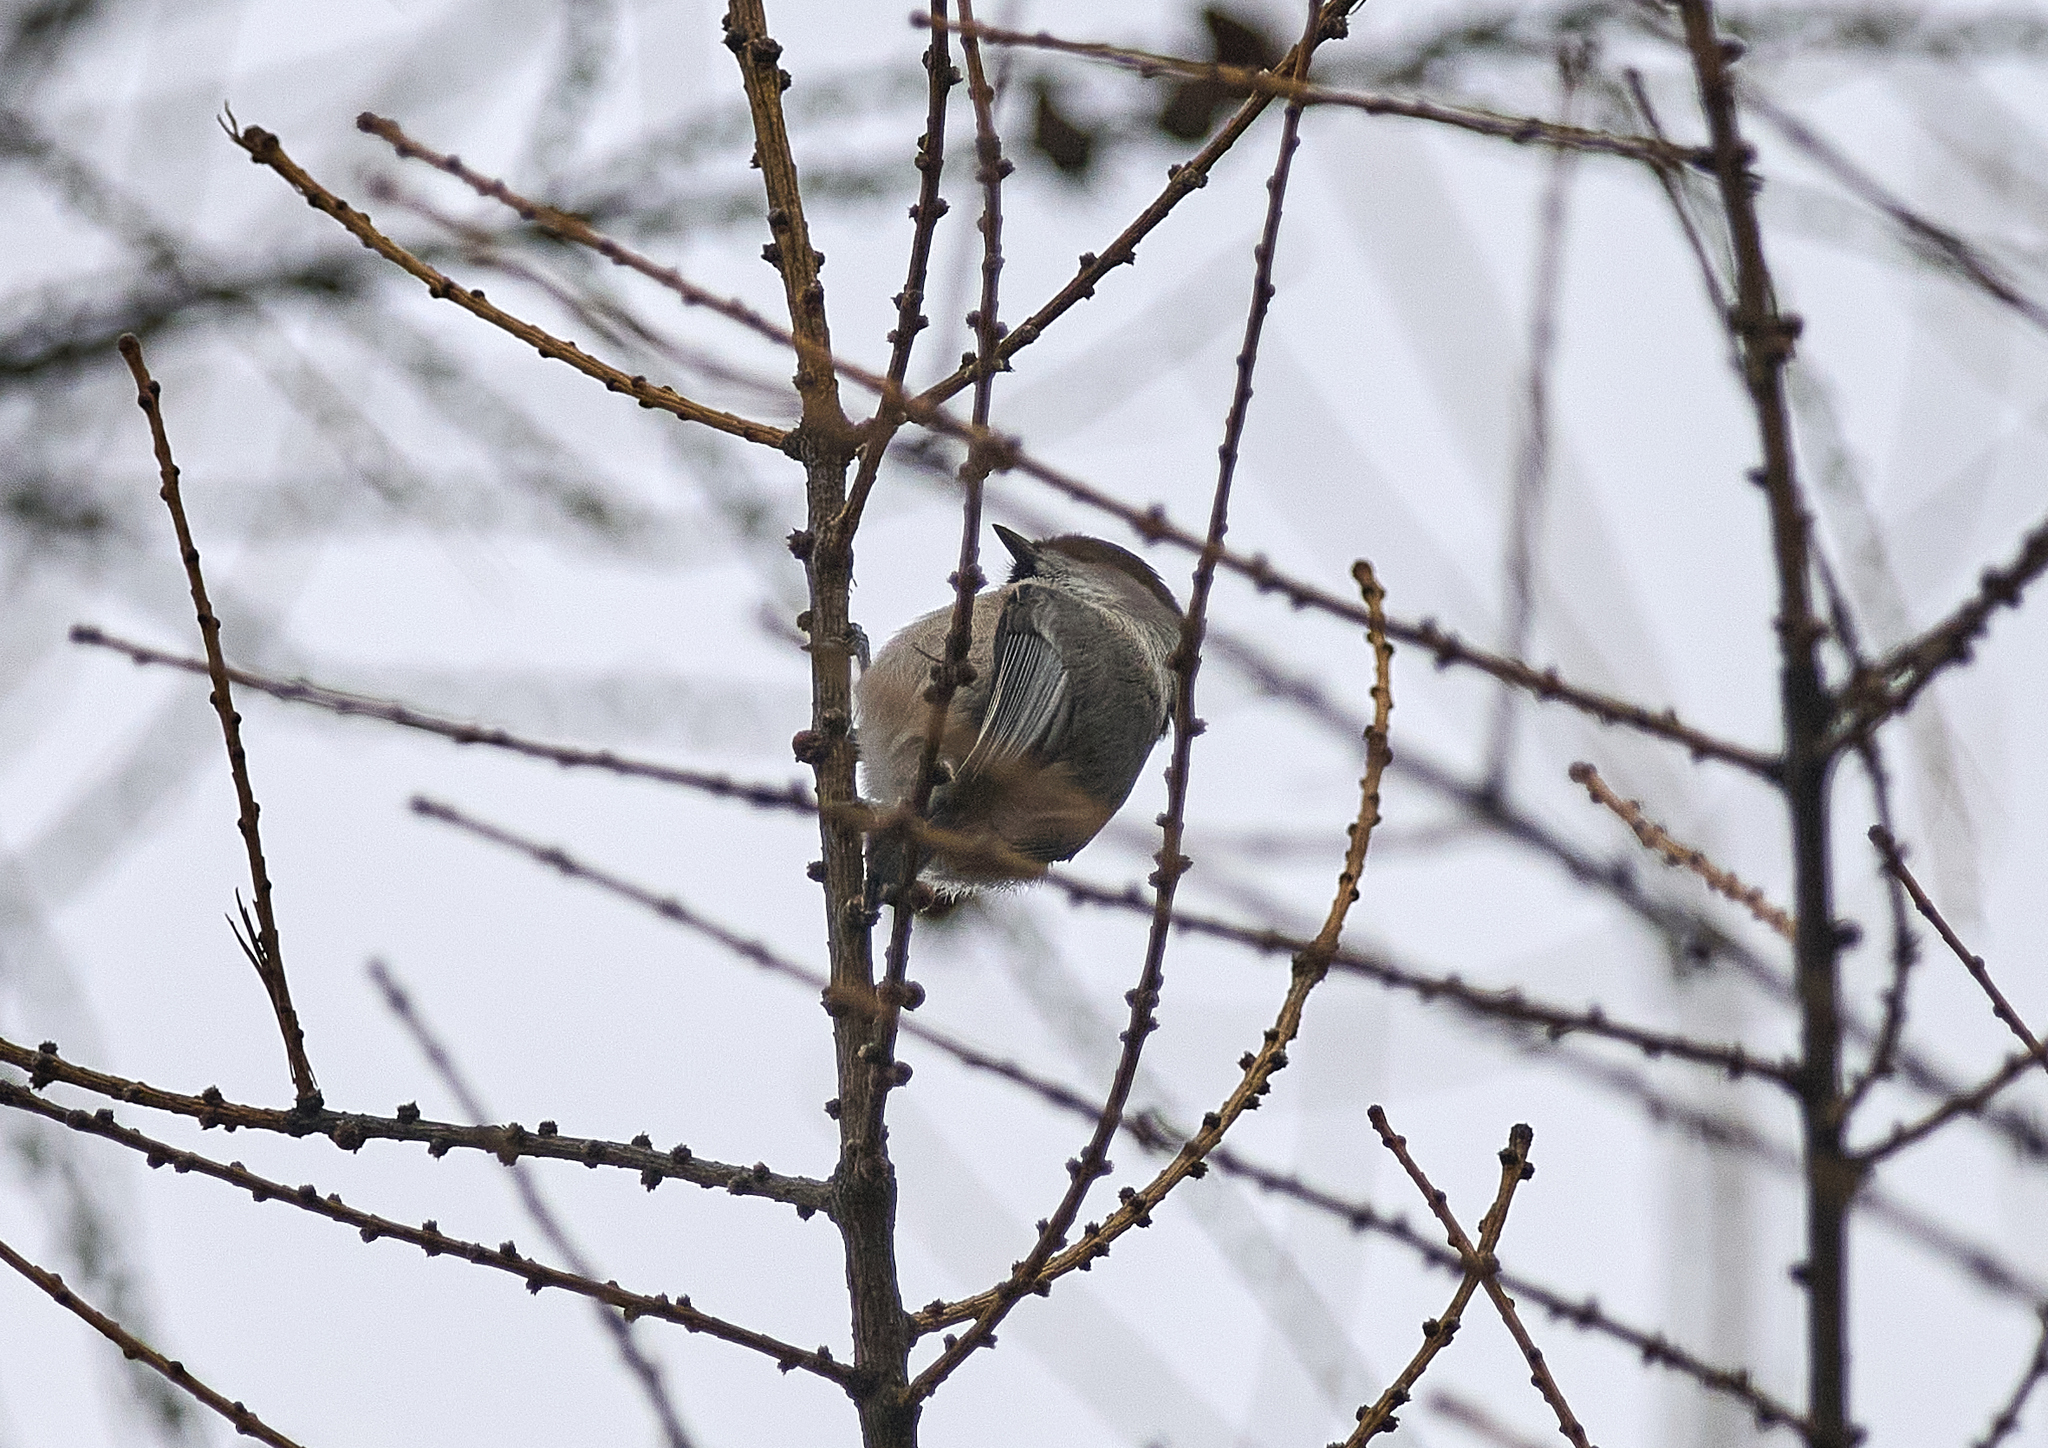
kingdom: Animalia
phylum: Chordata
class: Aves
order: Passeriformes
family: Paridae
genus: Poecile
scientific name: Poecile montanus
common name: Willow tit
